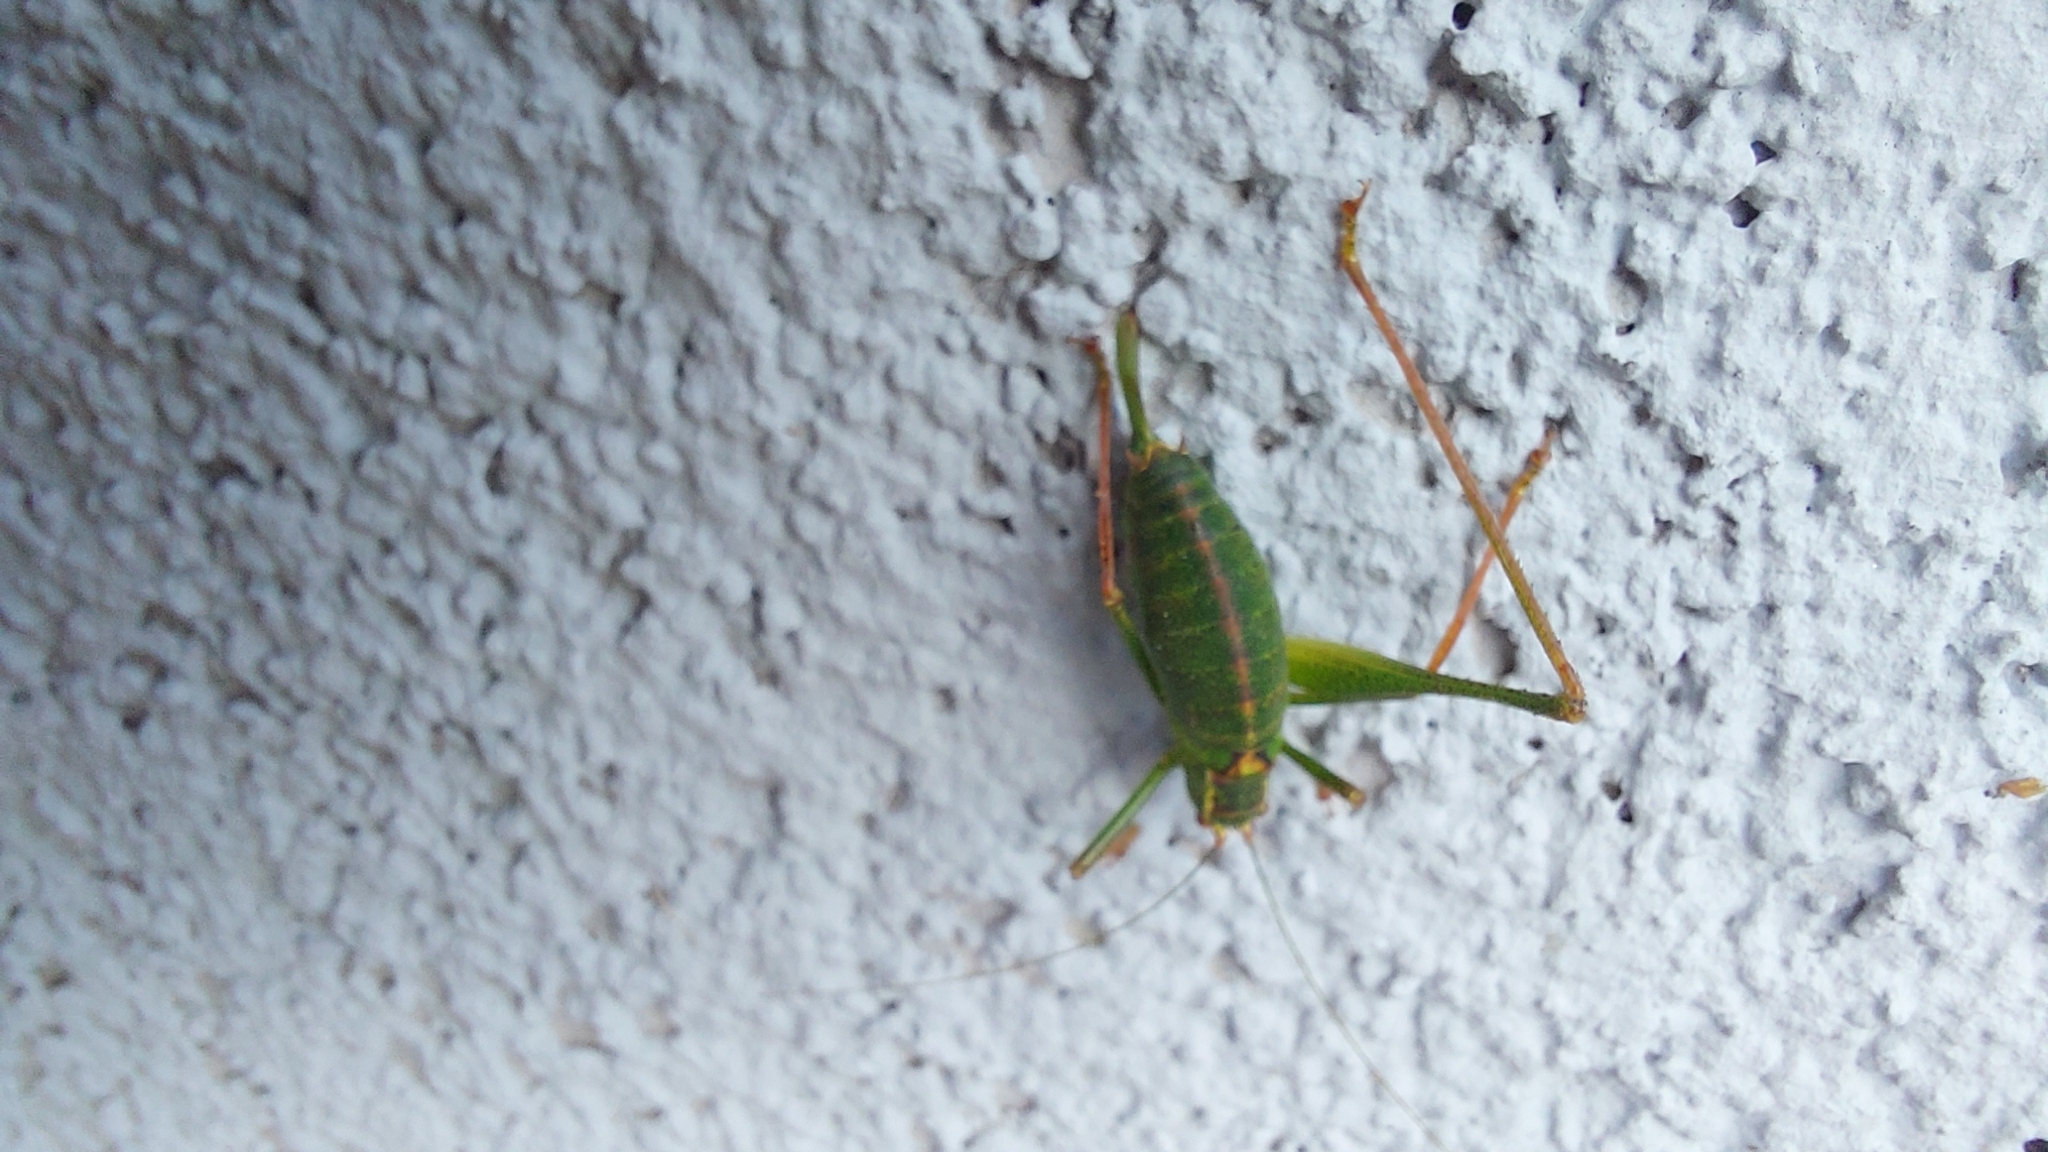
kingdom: Animalia
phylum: Arthropoda
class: Insecta
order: Orthoptera
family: Tettigoniidae
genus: Leptophyes
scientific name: Leptophyes punctatissima
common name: Speckled bush-cricket
